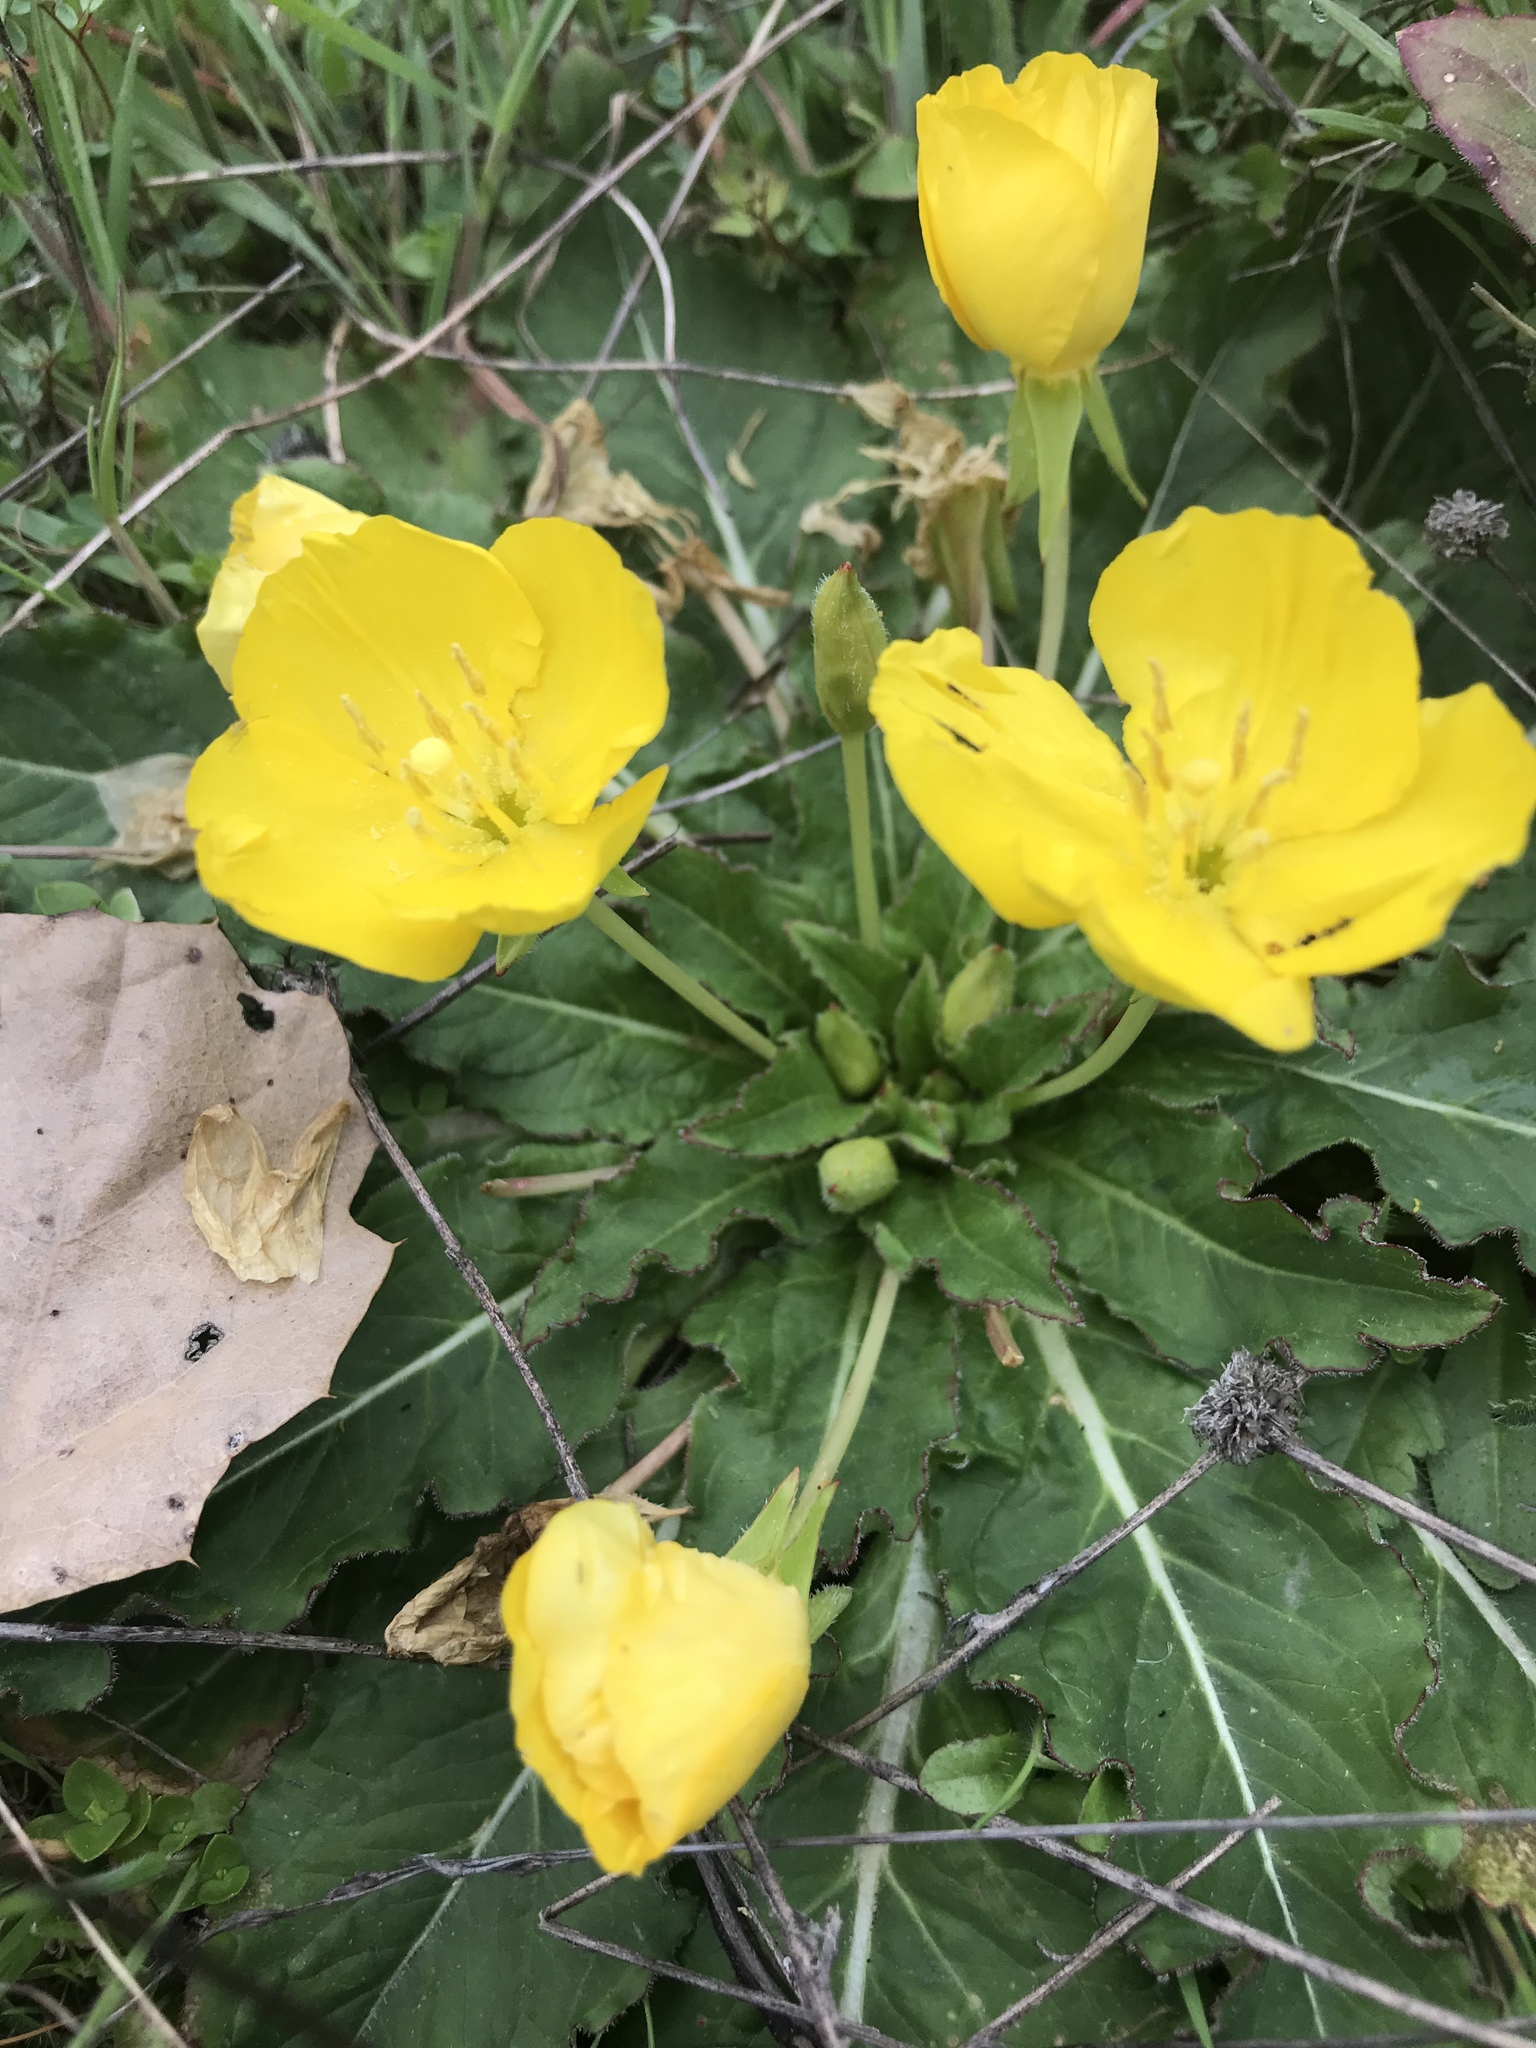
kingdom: Plantae
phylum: Tracheophyta
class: Magnoliopsida
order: Myrtales
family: Onagraceae
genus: Taraxia
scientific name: Taraxia ovata
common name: Goldeneggs
